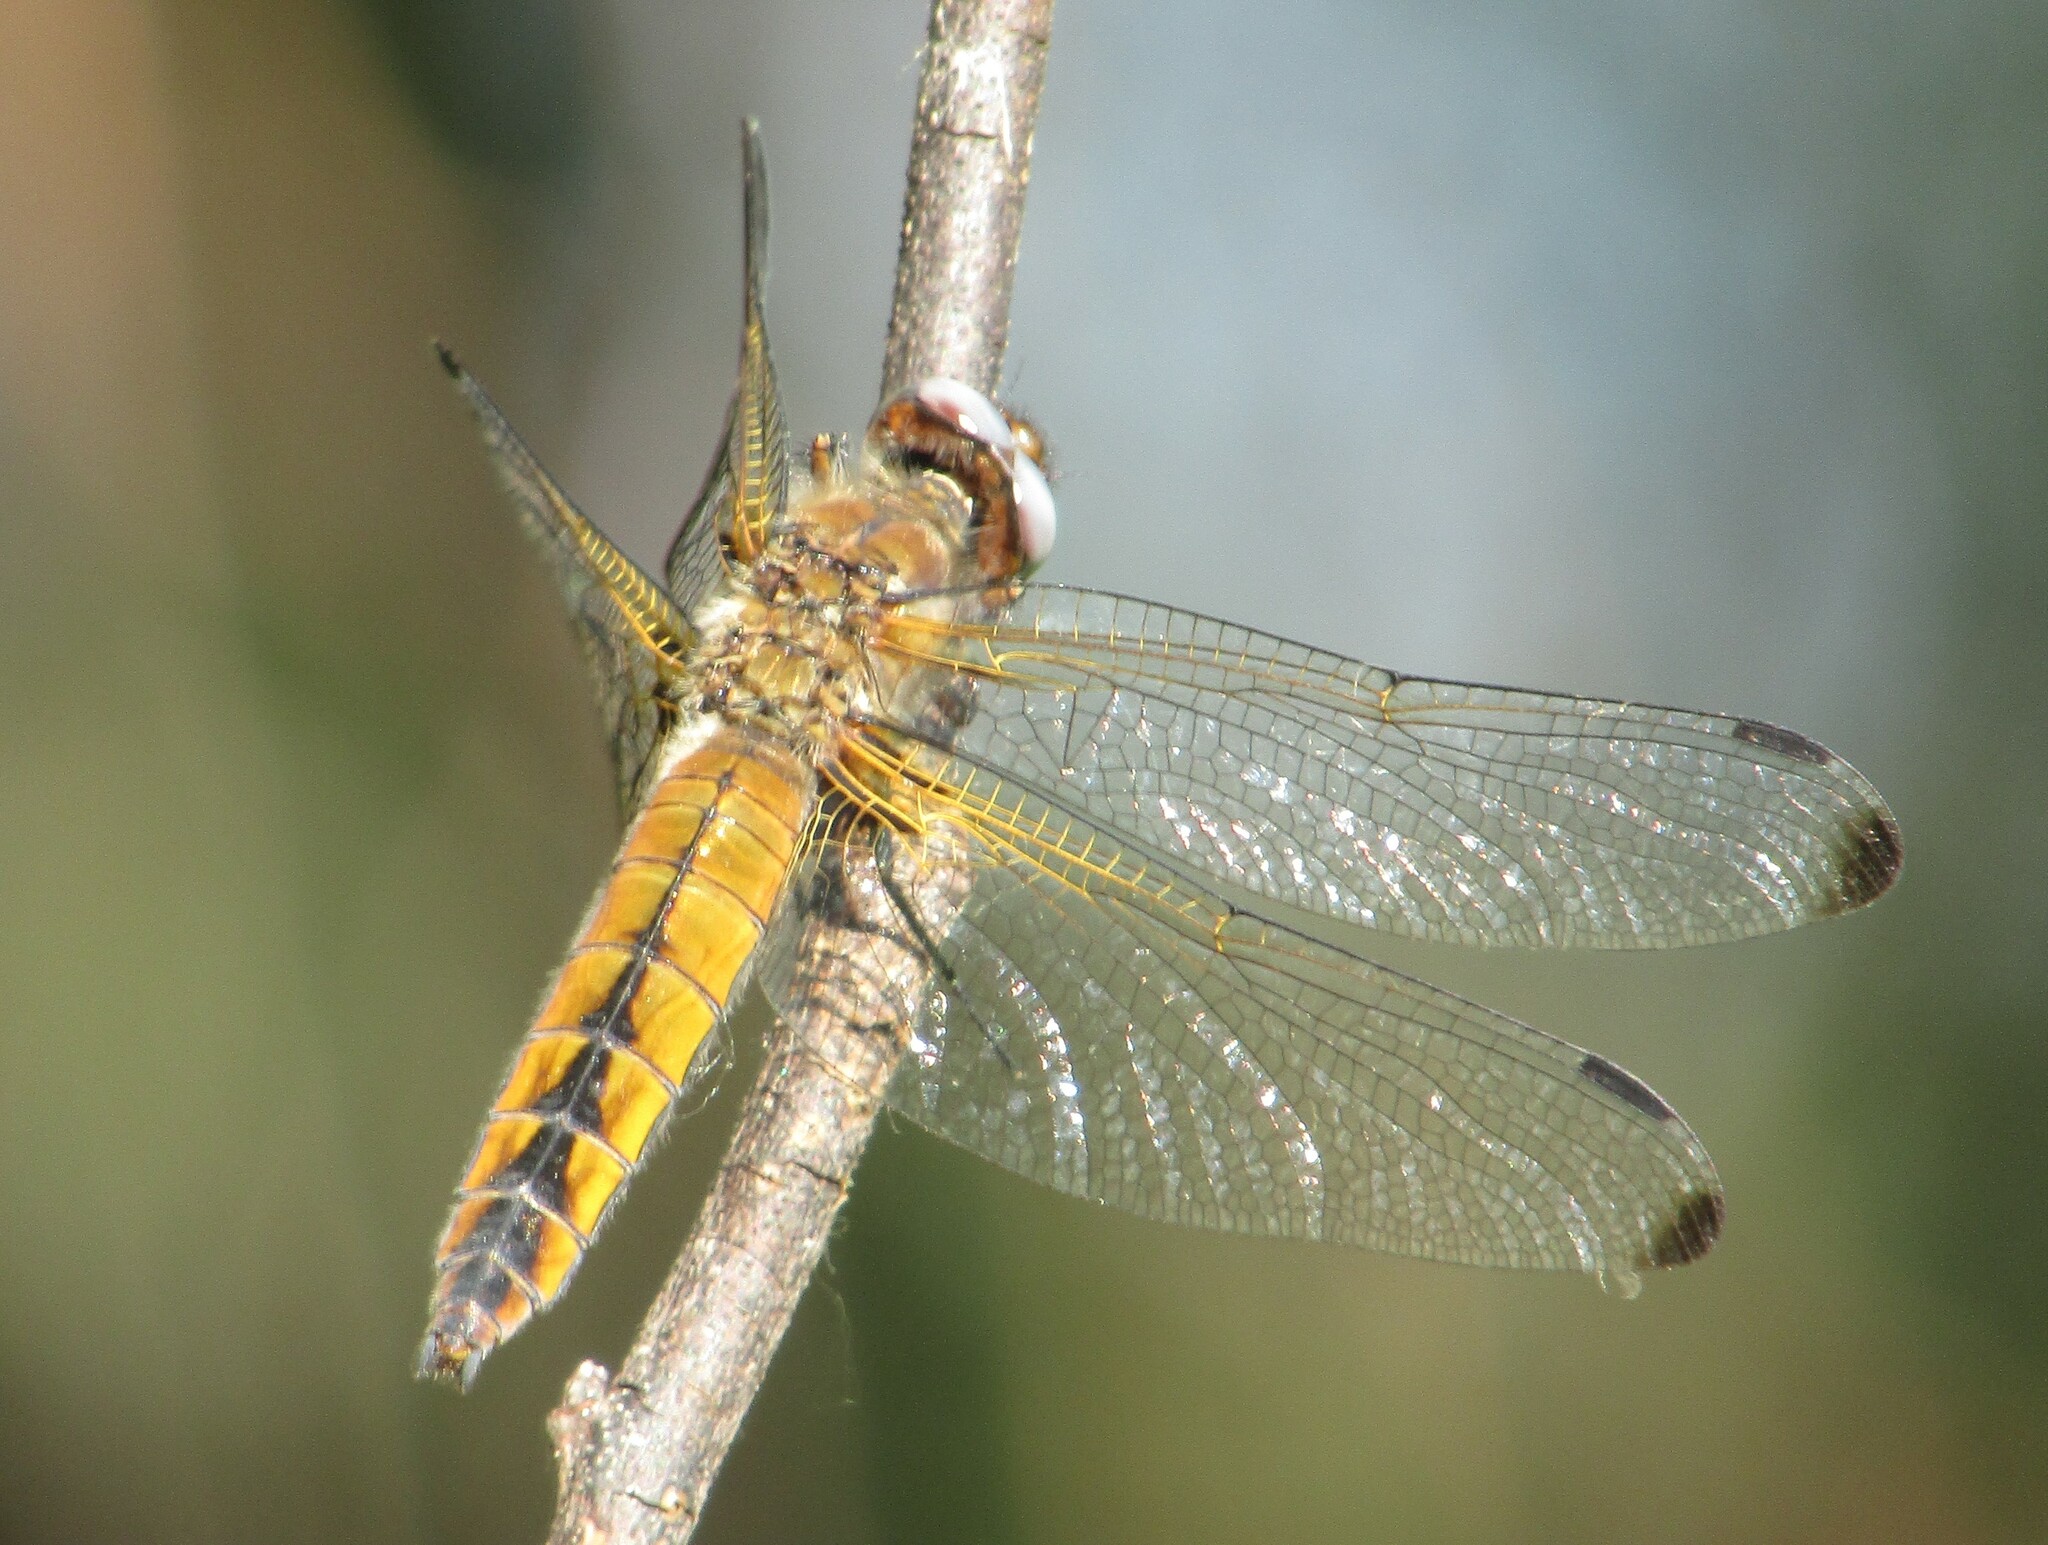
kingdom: Animalia
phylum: Arthropoda
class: Insecta
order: Odonata
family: Libellulidae
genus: Libellula
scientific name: Libellula fulva
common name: Blue chaser
